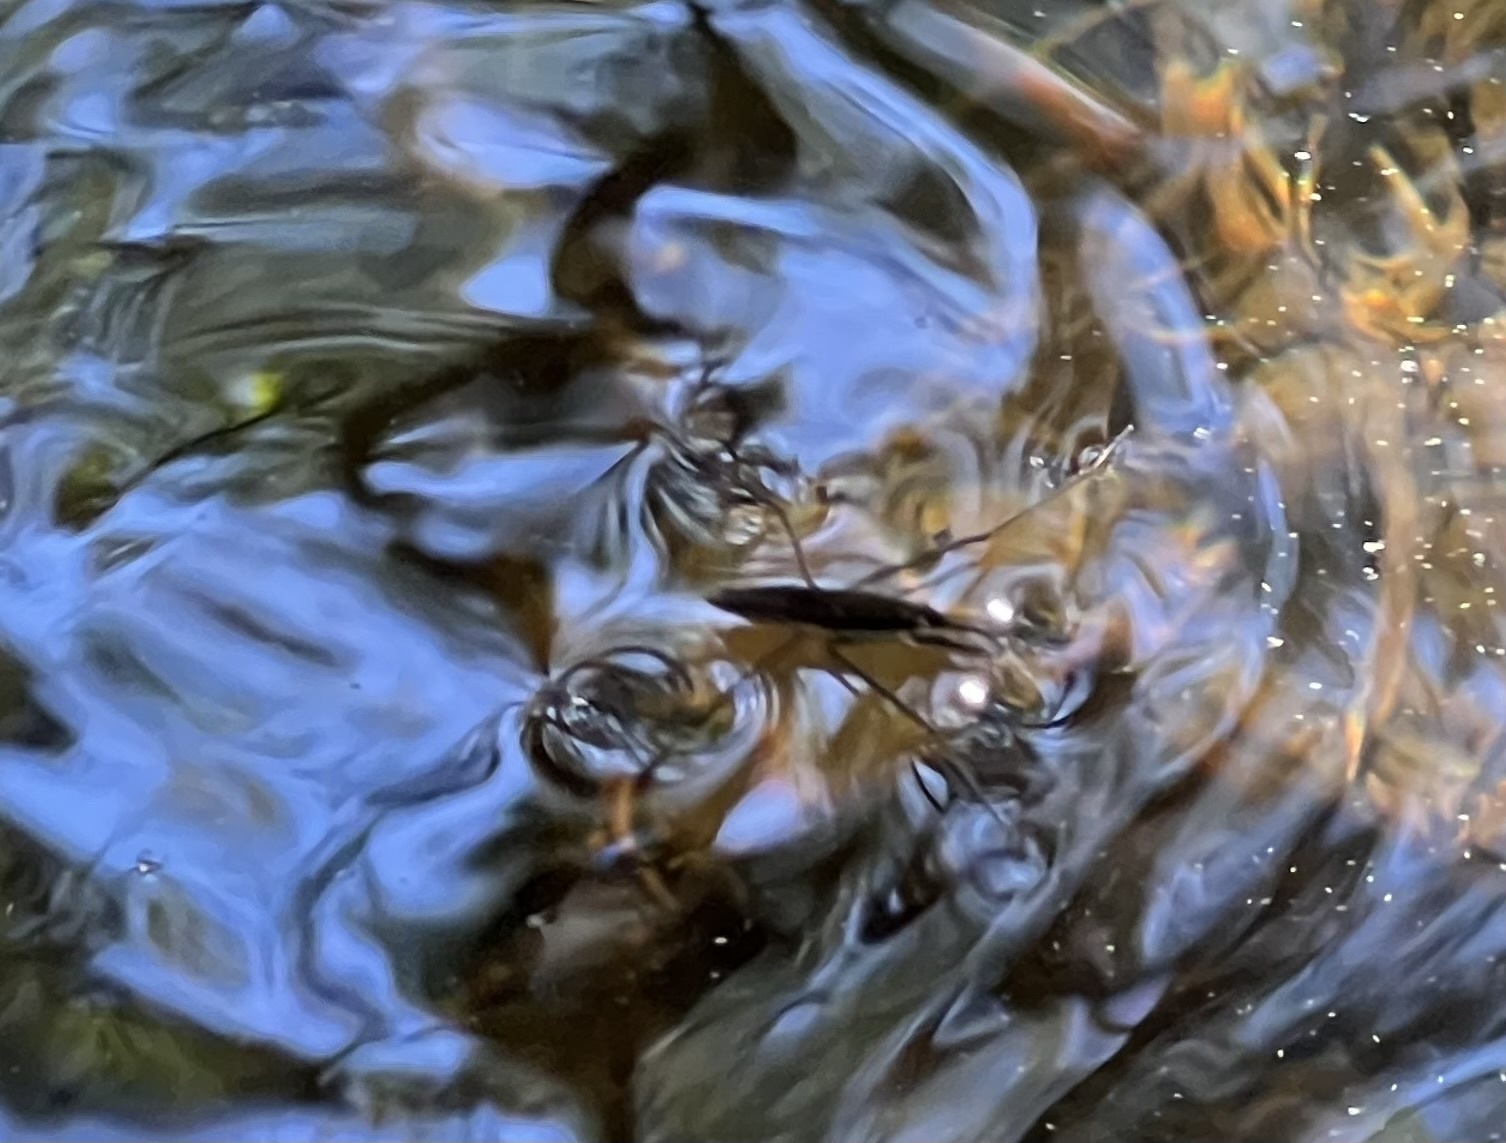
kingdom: Animalia
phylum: Arthropoda
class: Insecta
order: Hemiptera
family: Gerridae
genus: Aquarius
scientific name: Aquarius remigis
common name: Common water strider
